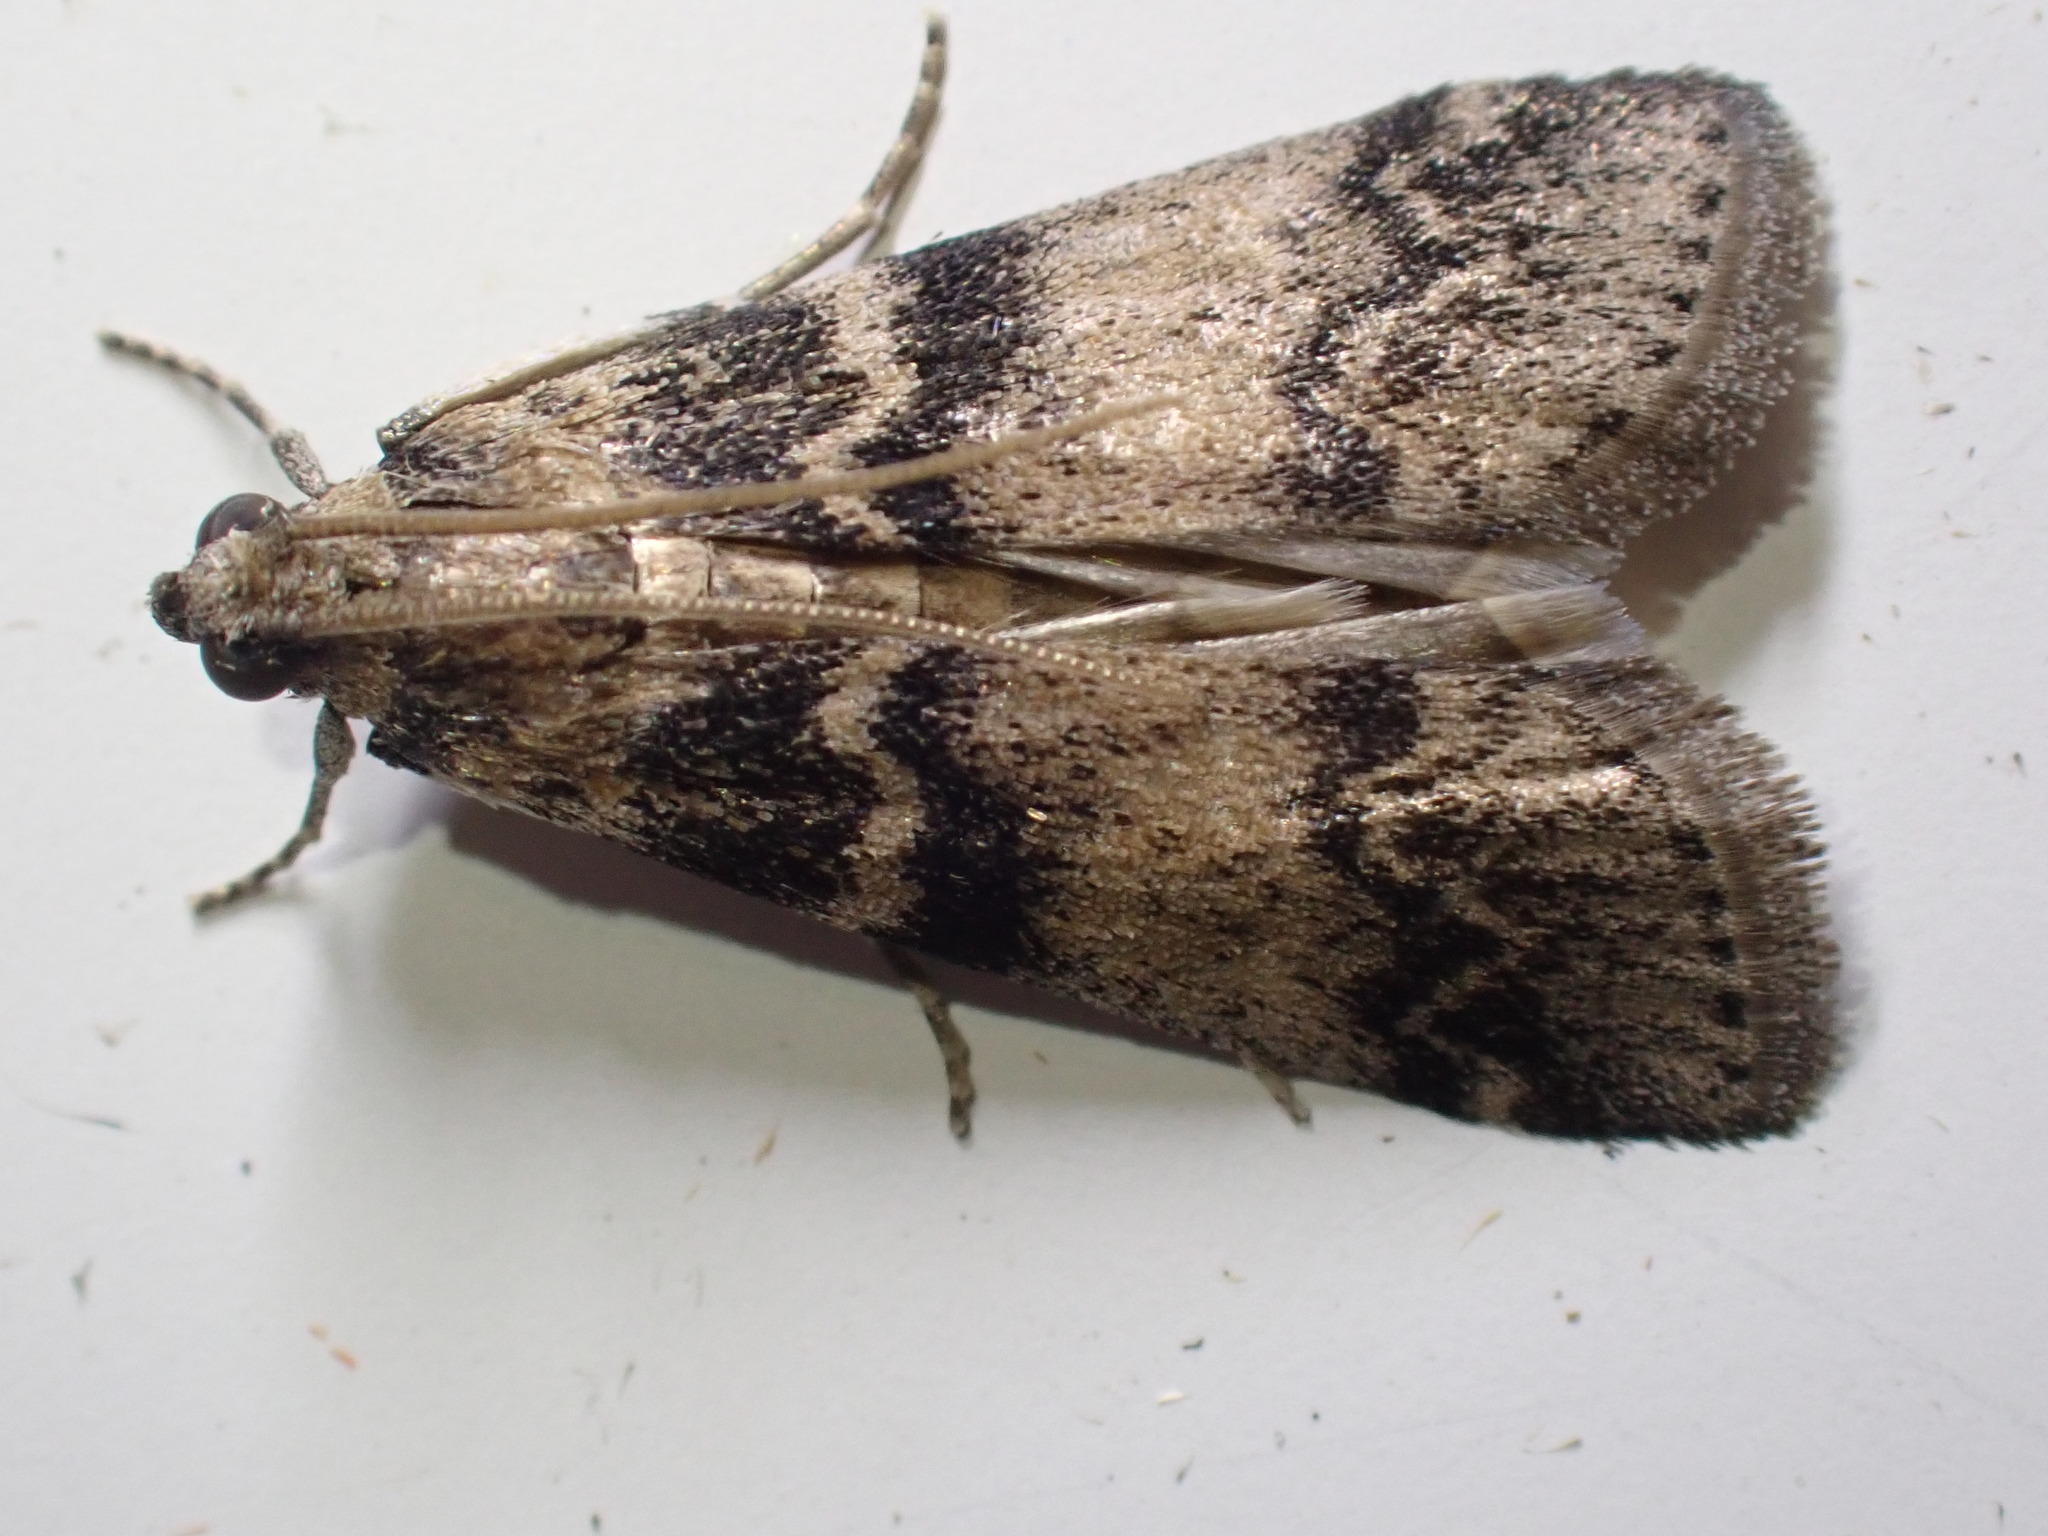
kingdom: Animalia
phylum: Arthropoda
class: Insecta
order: Lepidoptera
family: Pyralidae
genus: Euzophera
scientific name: Euzophera pinguis
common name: Ash-bark knot-horn
